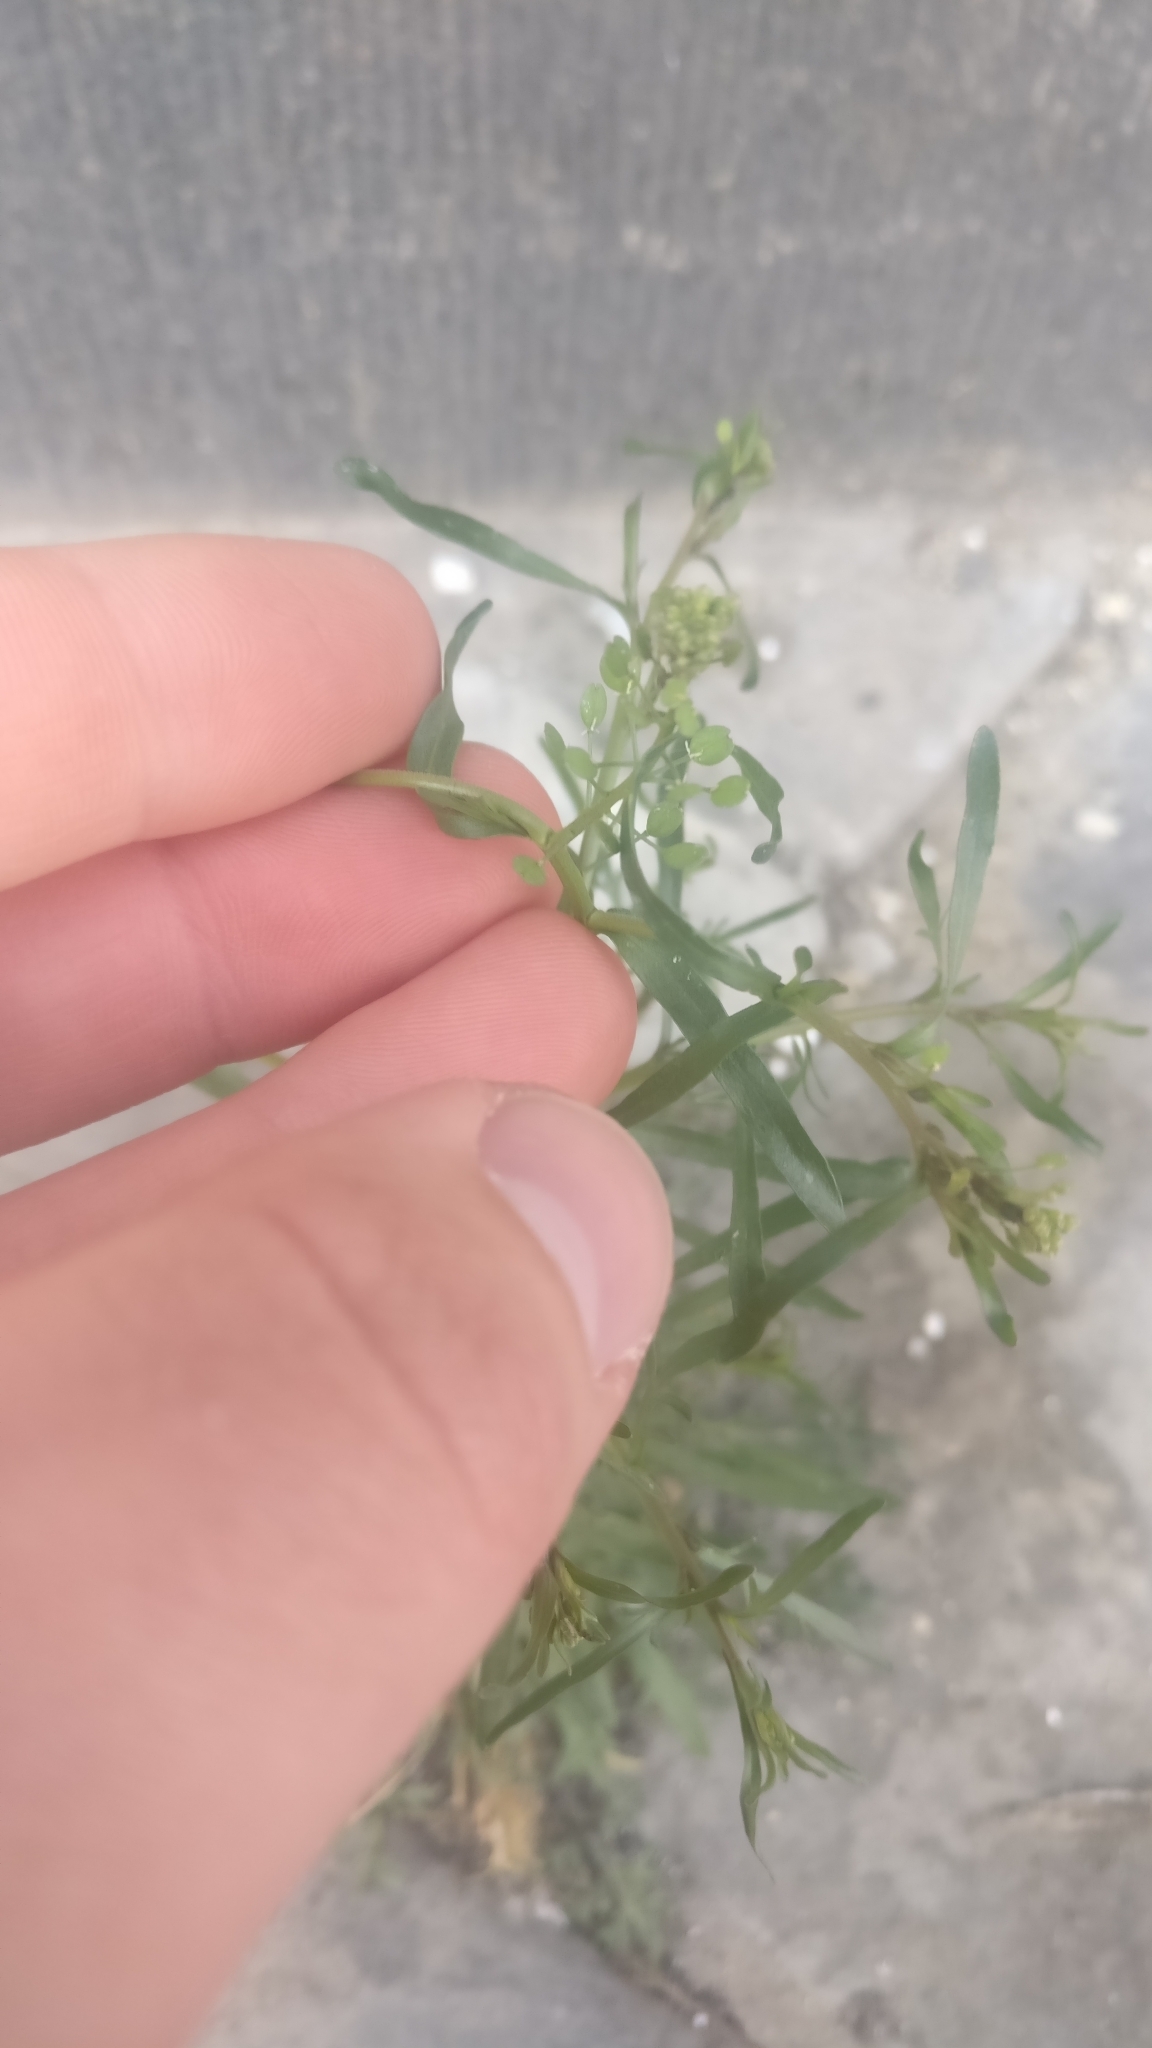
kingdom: Plantae
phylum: Tracheophyta
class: Magnoliopsida
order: Brassicales
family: Brassicaceae
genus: Lepidium
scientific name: Lepidium ruderale
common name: Narrow-leaved pepperwort
